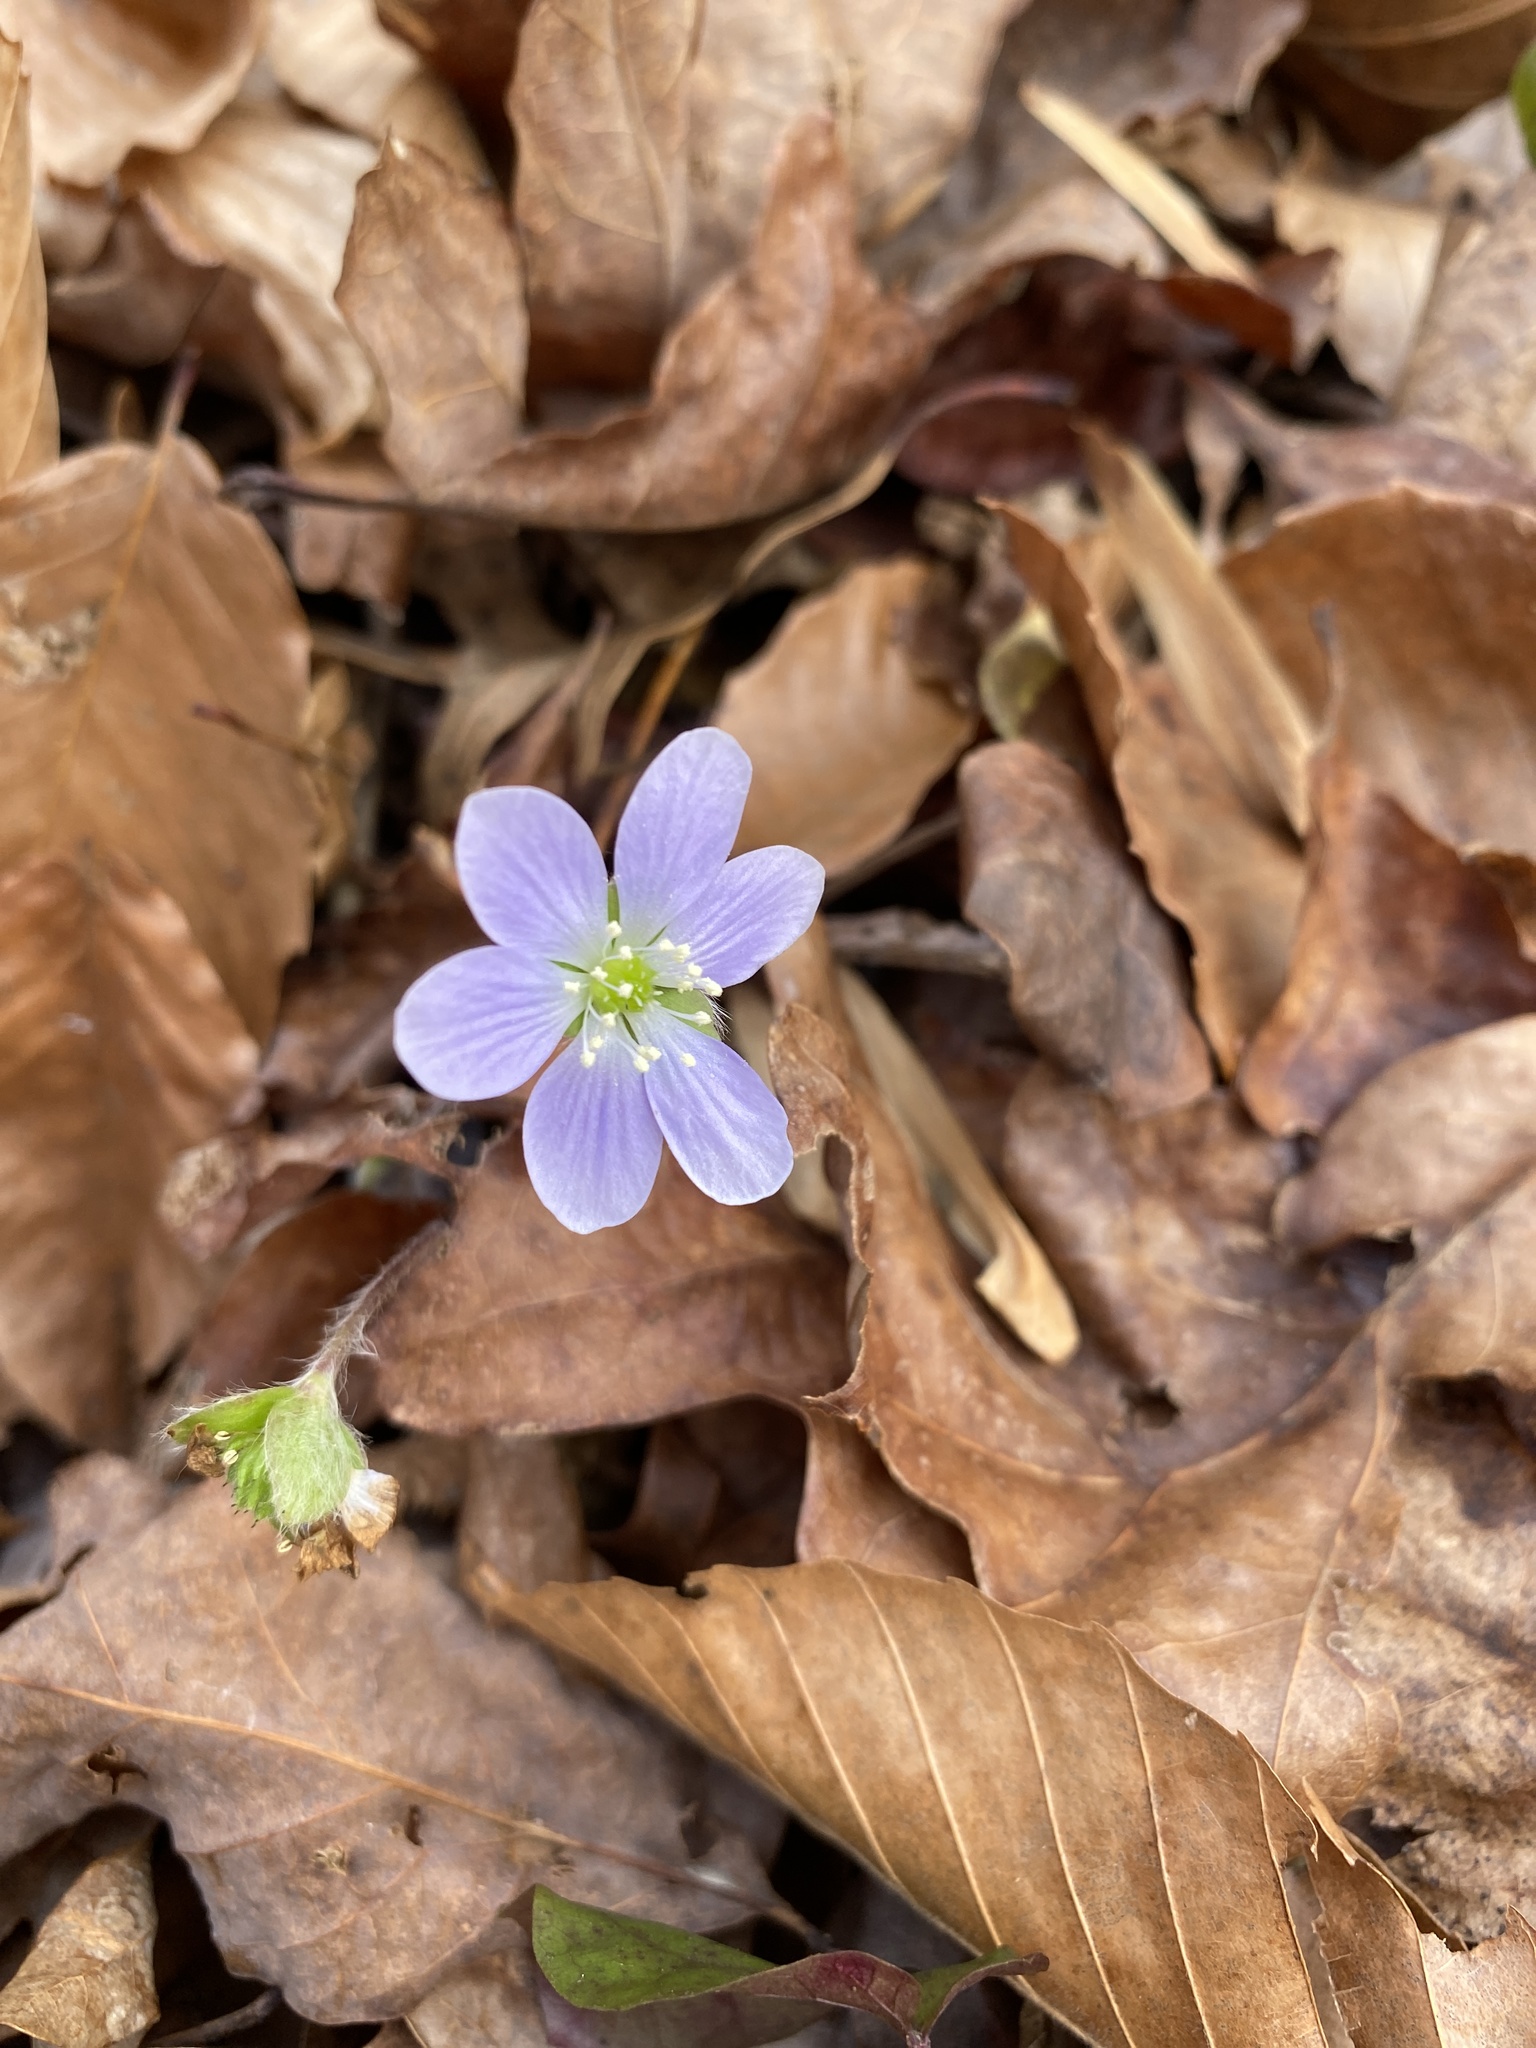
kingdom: Plantae
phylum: Tracheophyta
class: Magnoliopsida
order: Ranunculales
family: Ranunculaceae
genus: Hepatica
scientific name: Hepatica americana
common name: American hepatica
